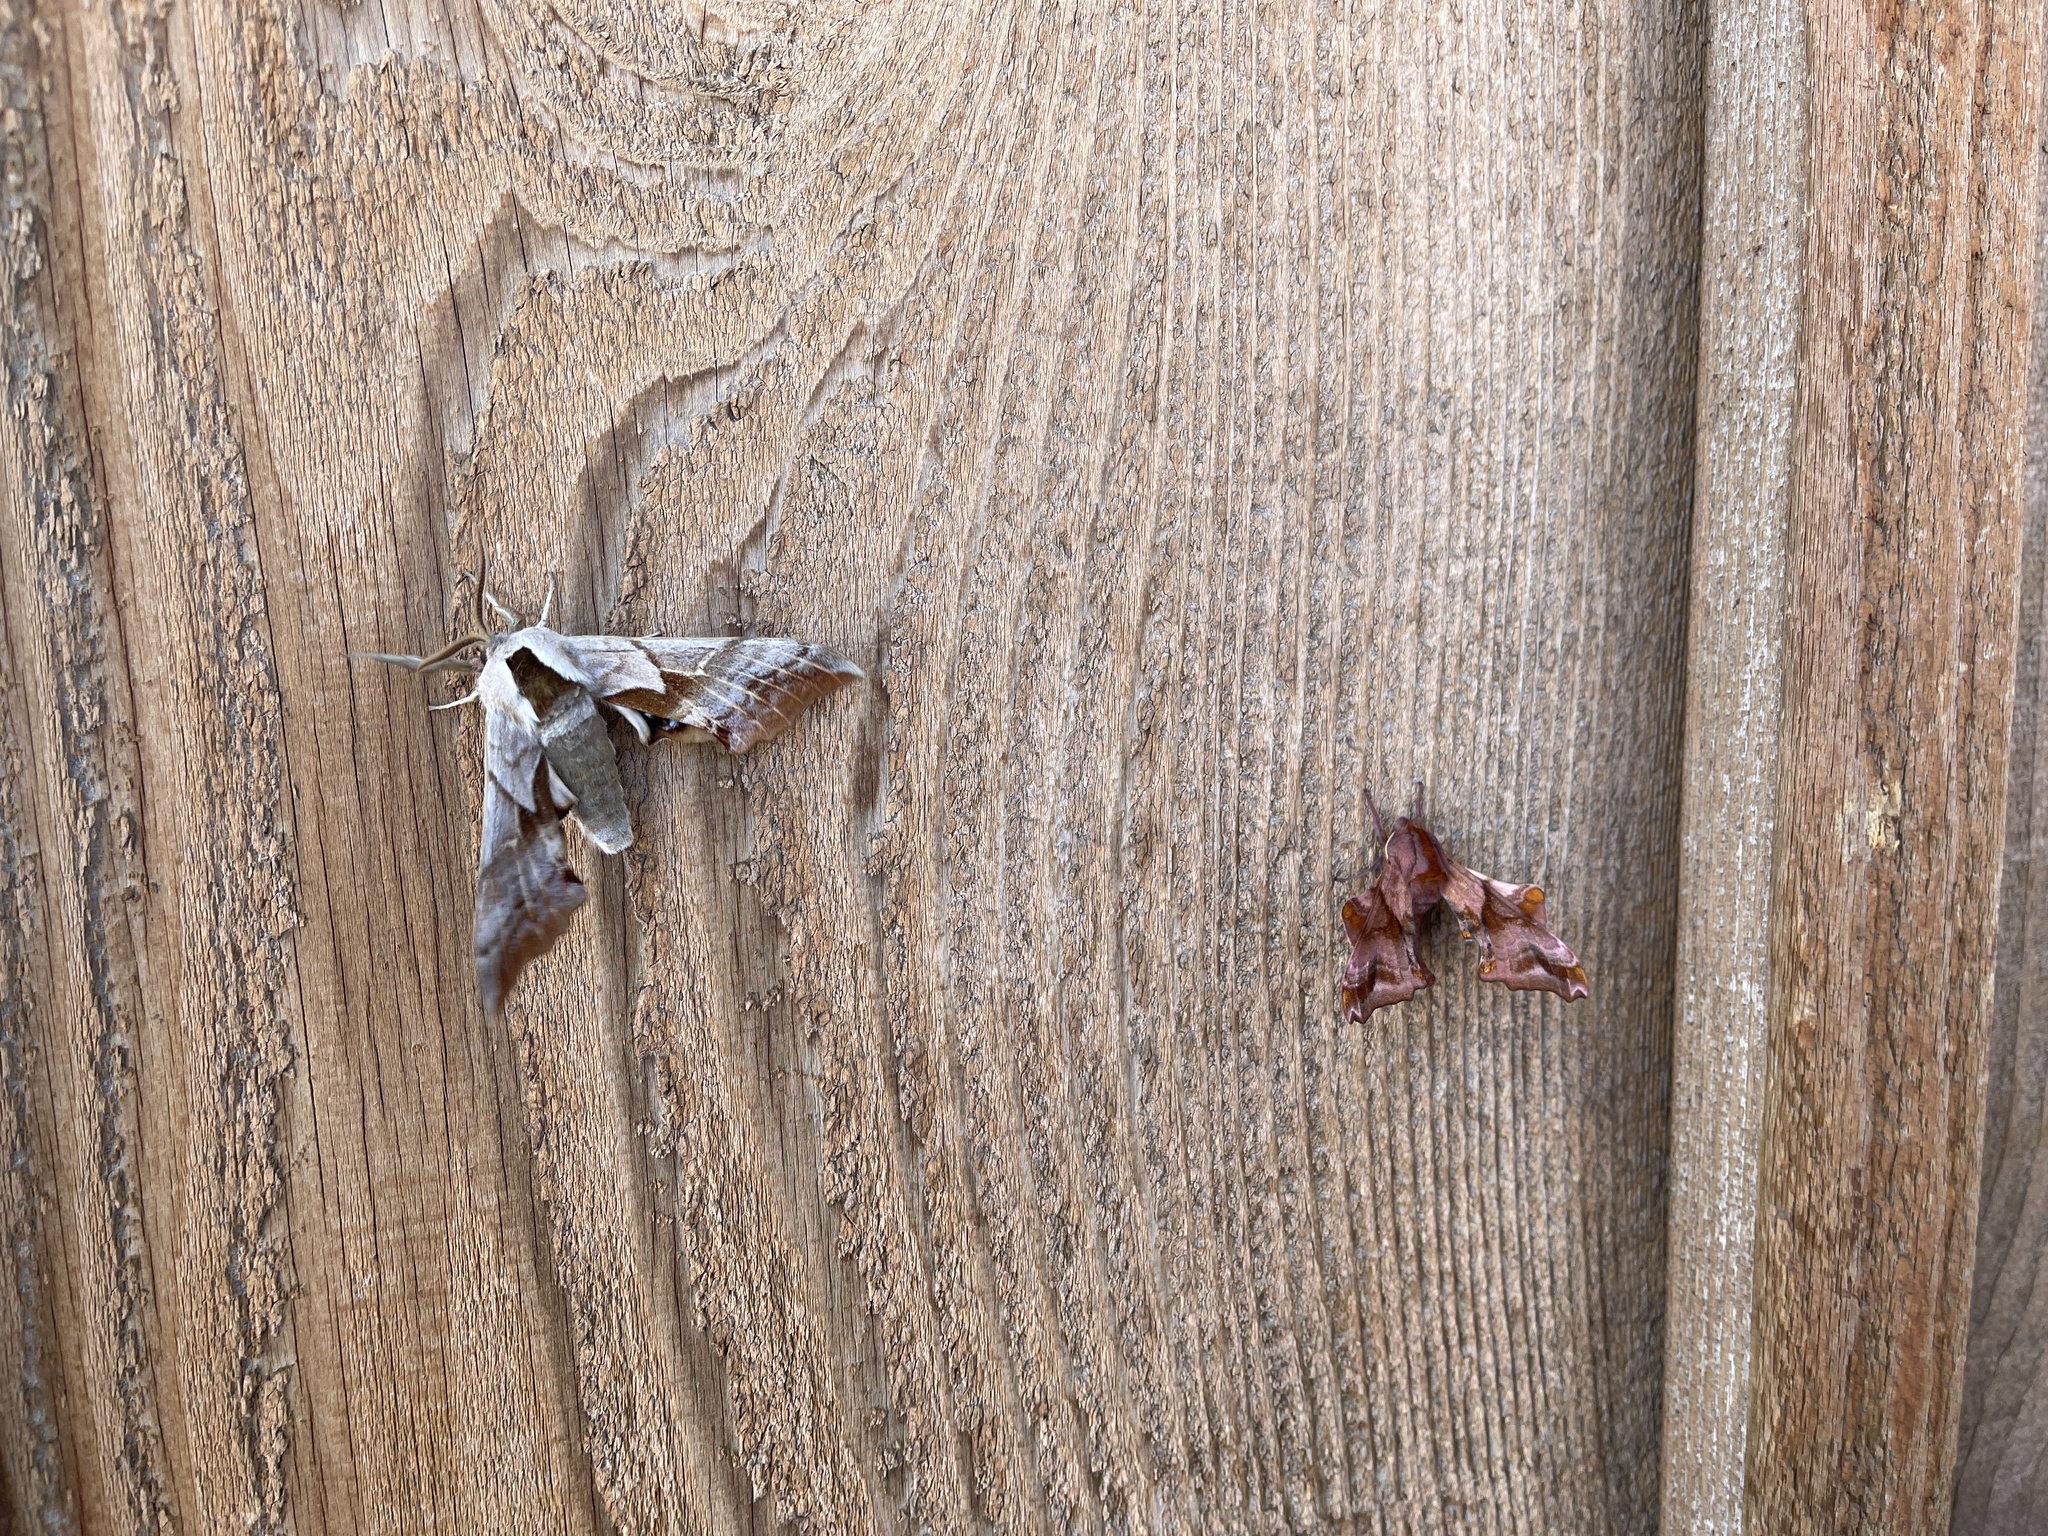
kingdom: Animalia
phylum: Arthropoda
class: Insecta
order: Lepidoptera
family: Sphingidae
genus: Smerinthus
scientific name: Smerinthus cerisyi
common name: Cerisy's sphinx moth
